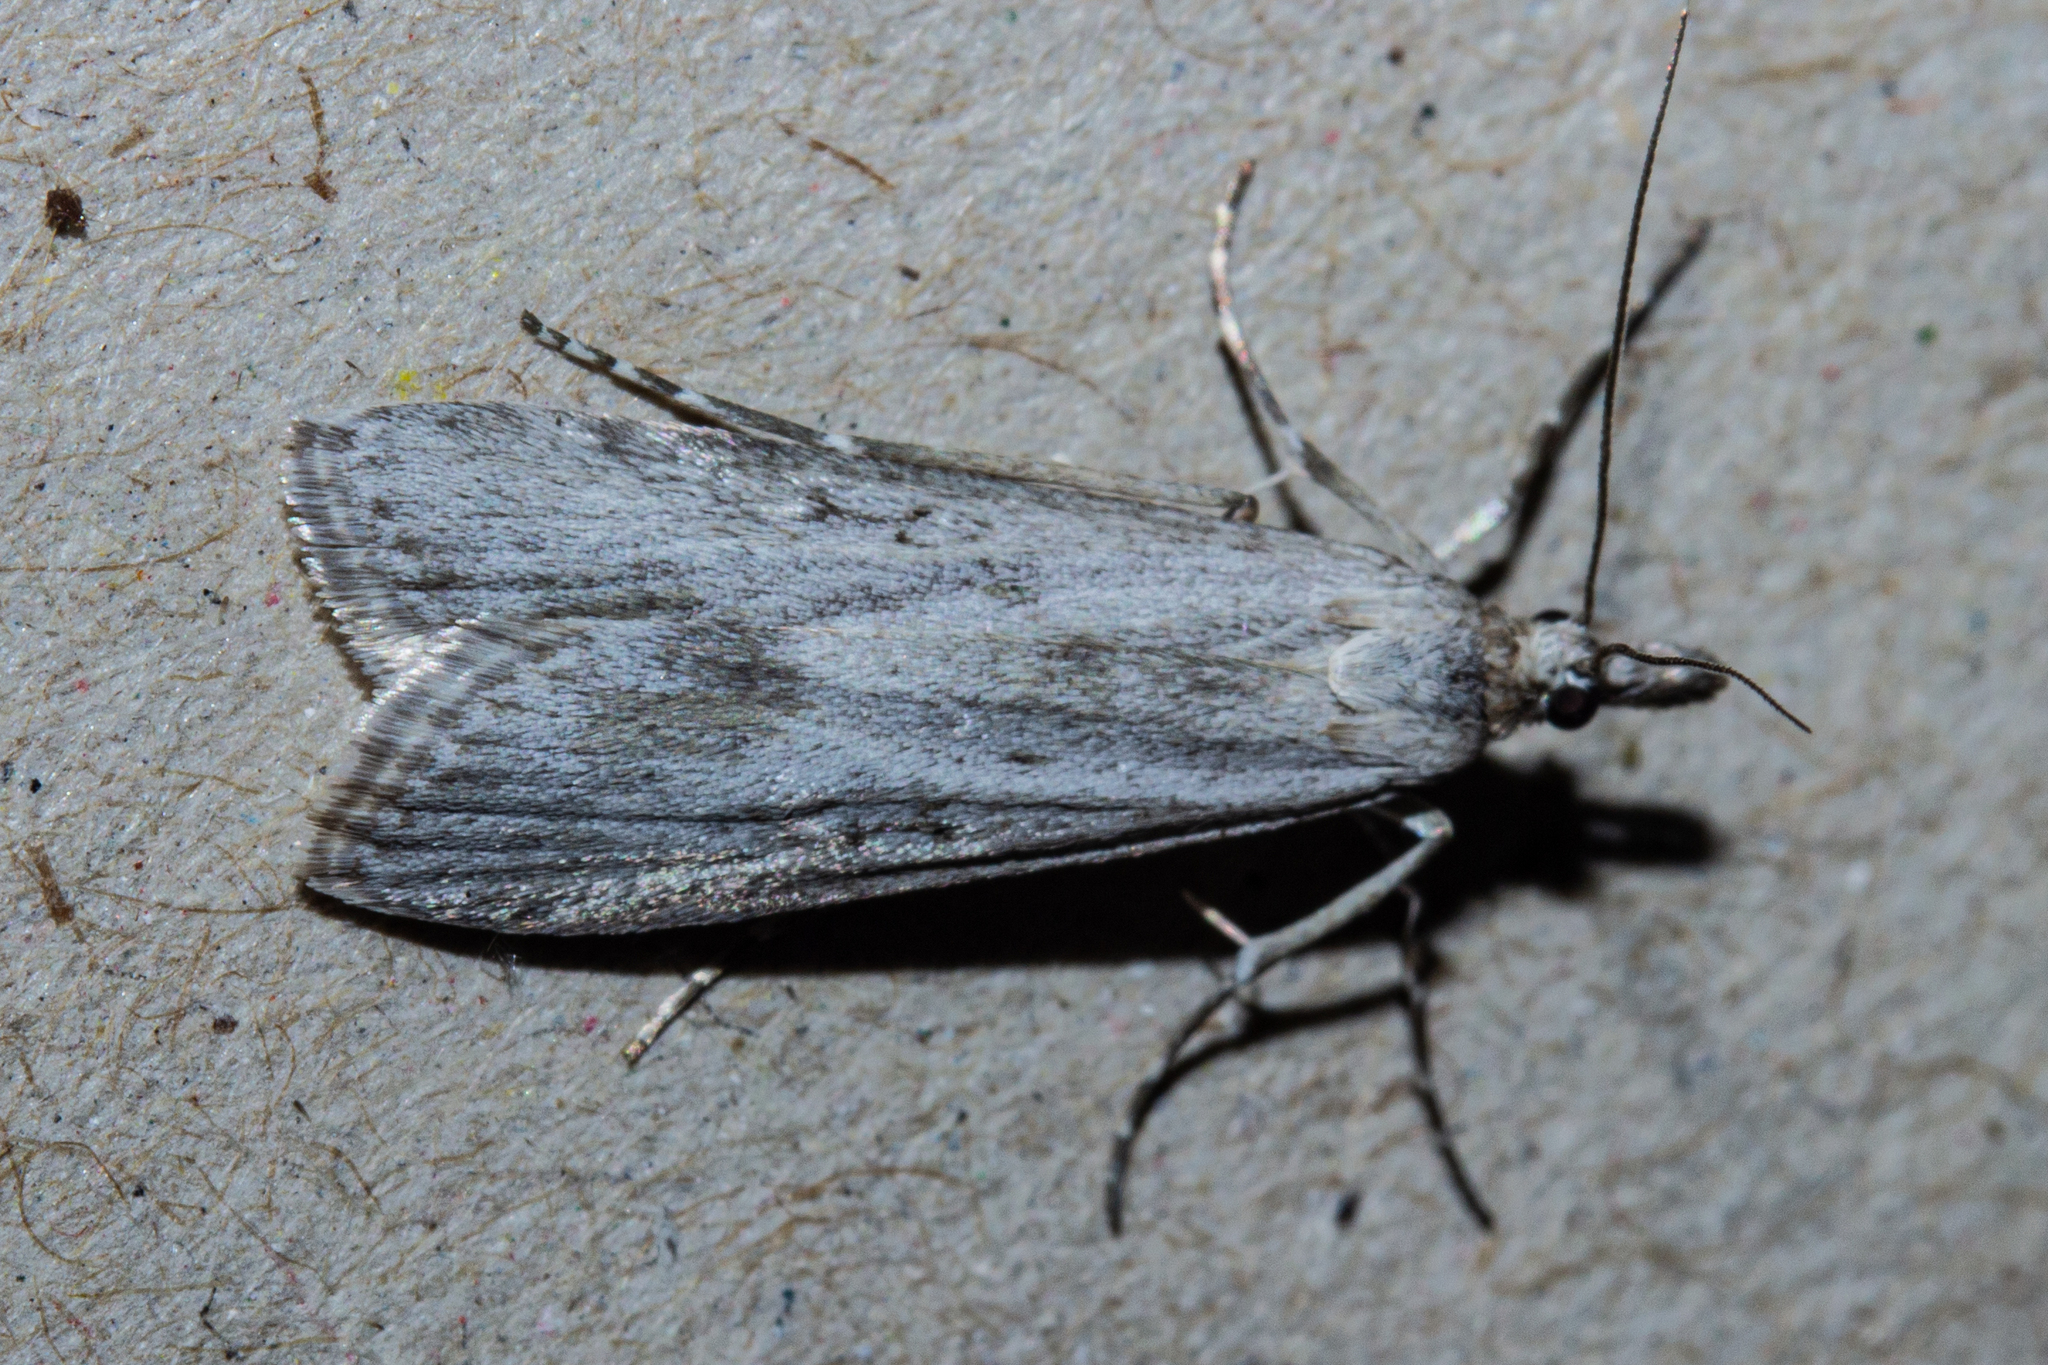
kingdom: Animalia
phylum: Arthropoda
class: Insecta
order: Lepidoptera
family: Crambidae
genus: Eudonia
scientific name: Eudonia leptalea
